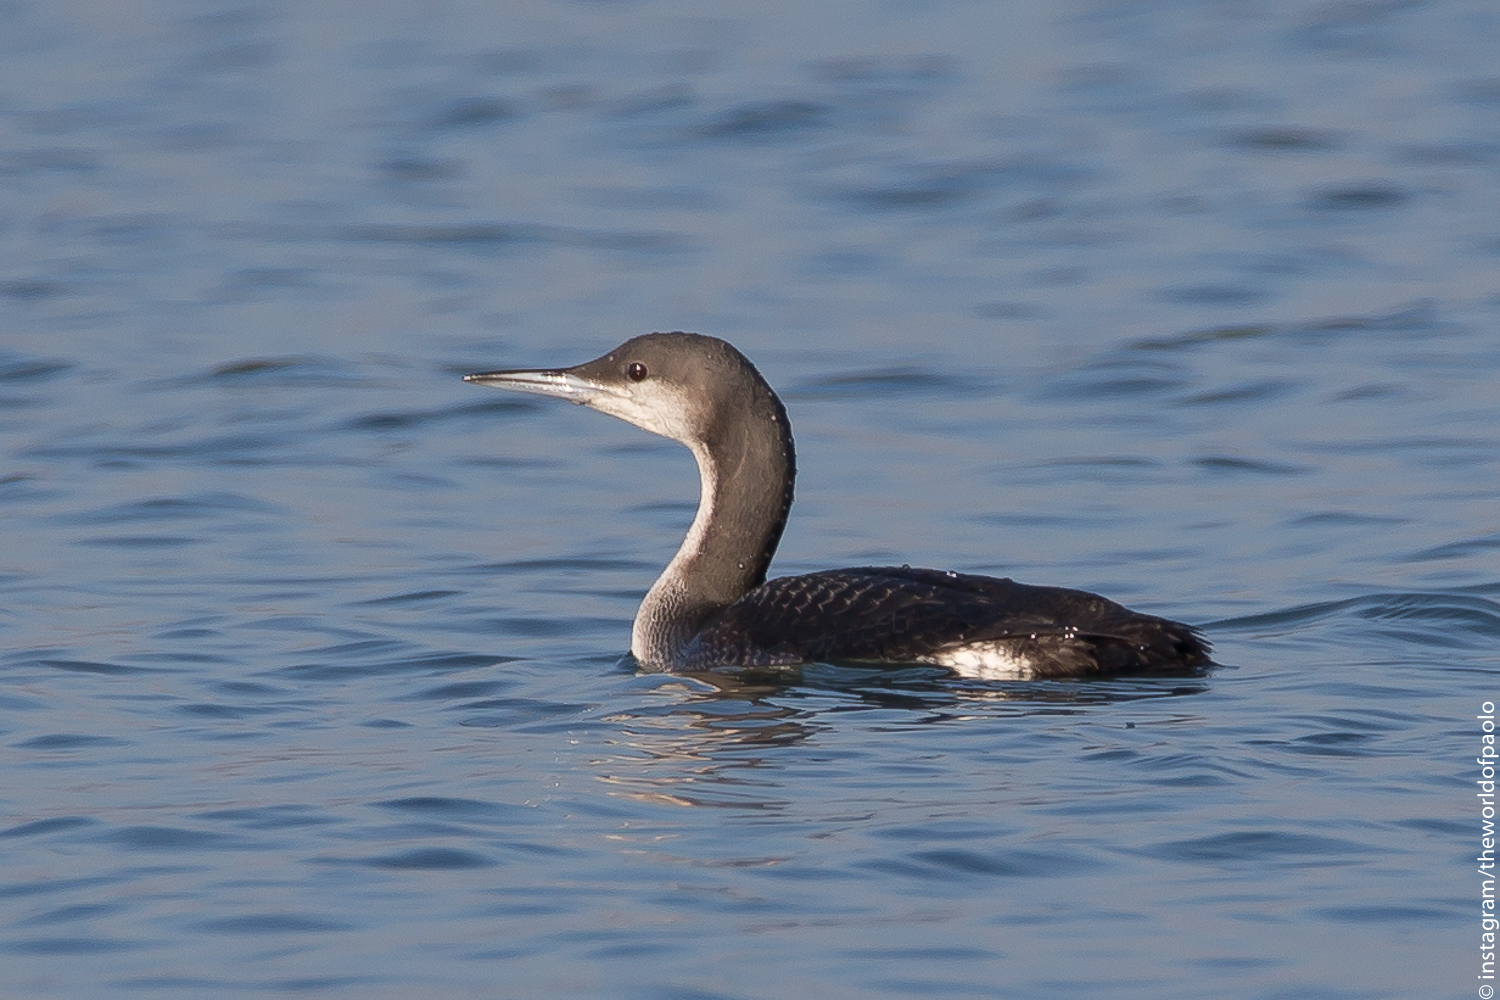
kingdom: Animalia
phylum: Chordata
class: Aves
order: Gaviiformes
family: Gaviidae
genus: Gavia
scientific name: Gavia arctica
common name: Black-throated loon
